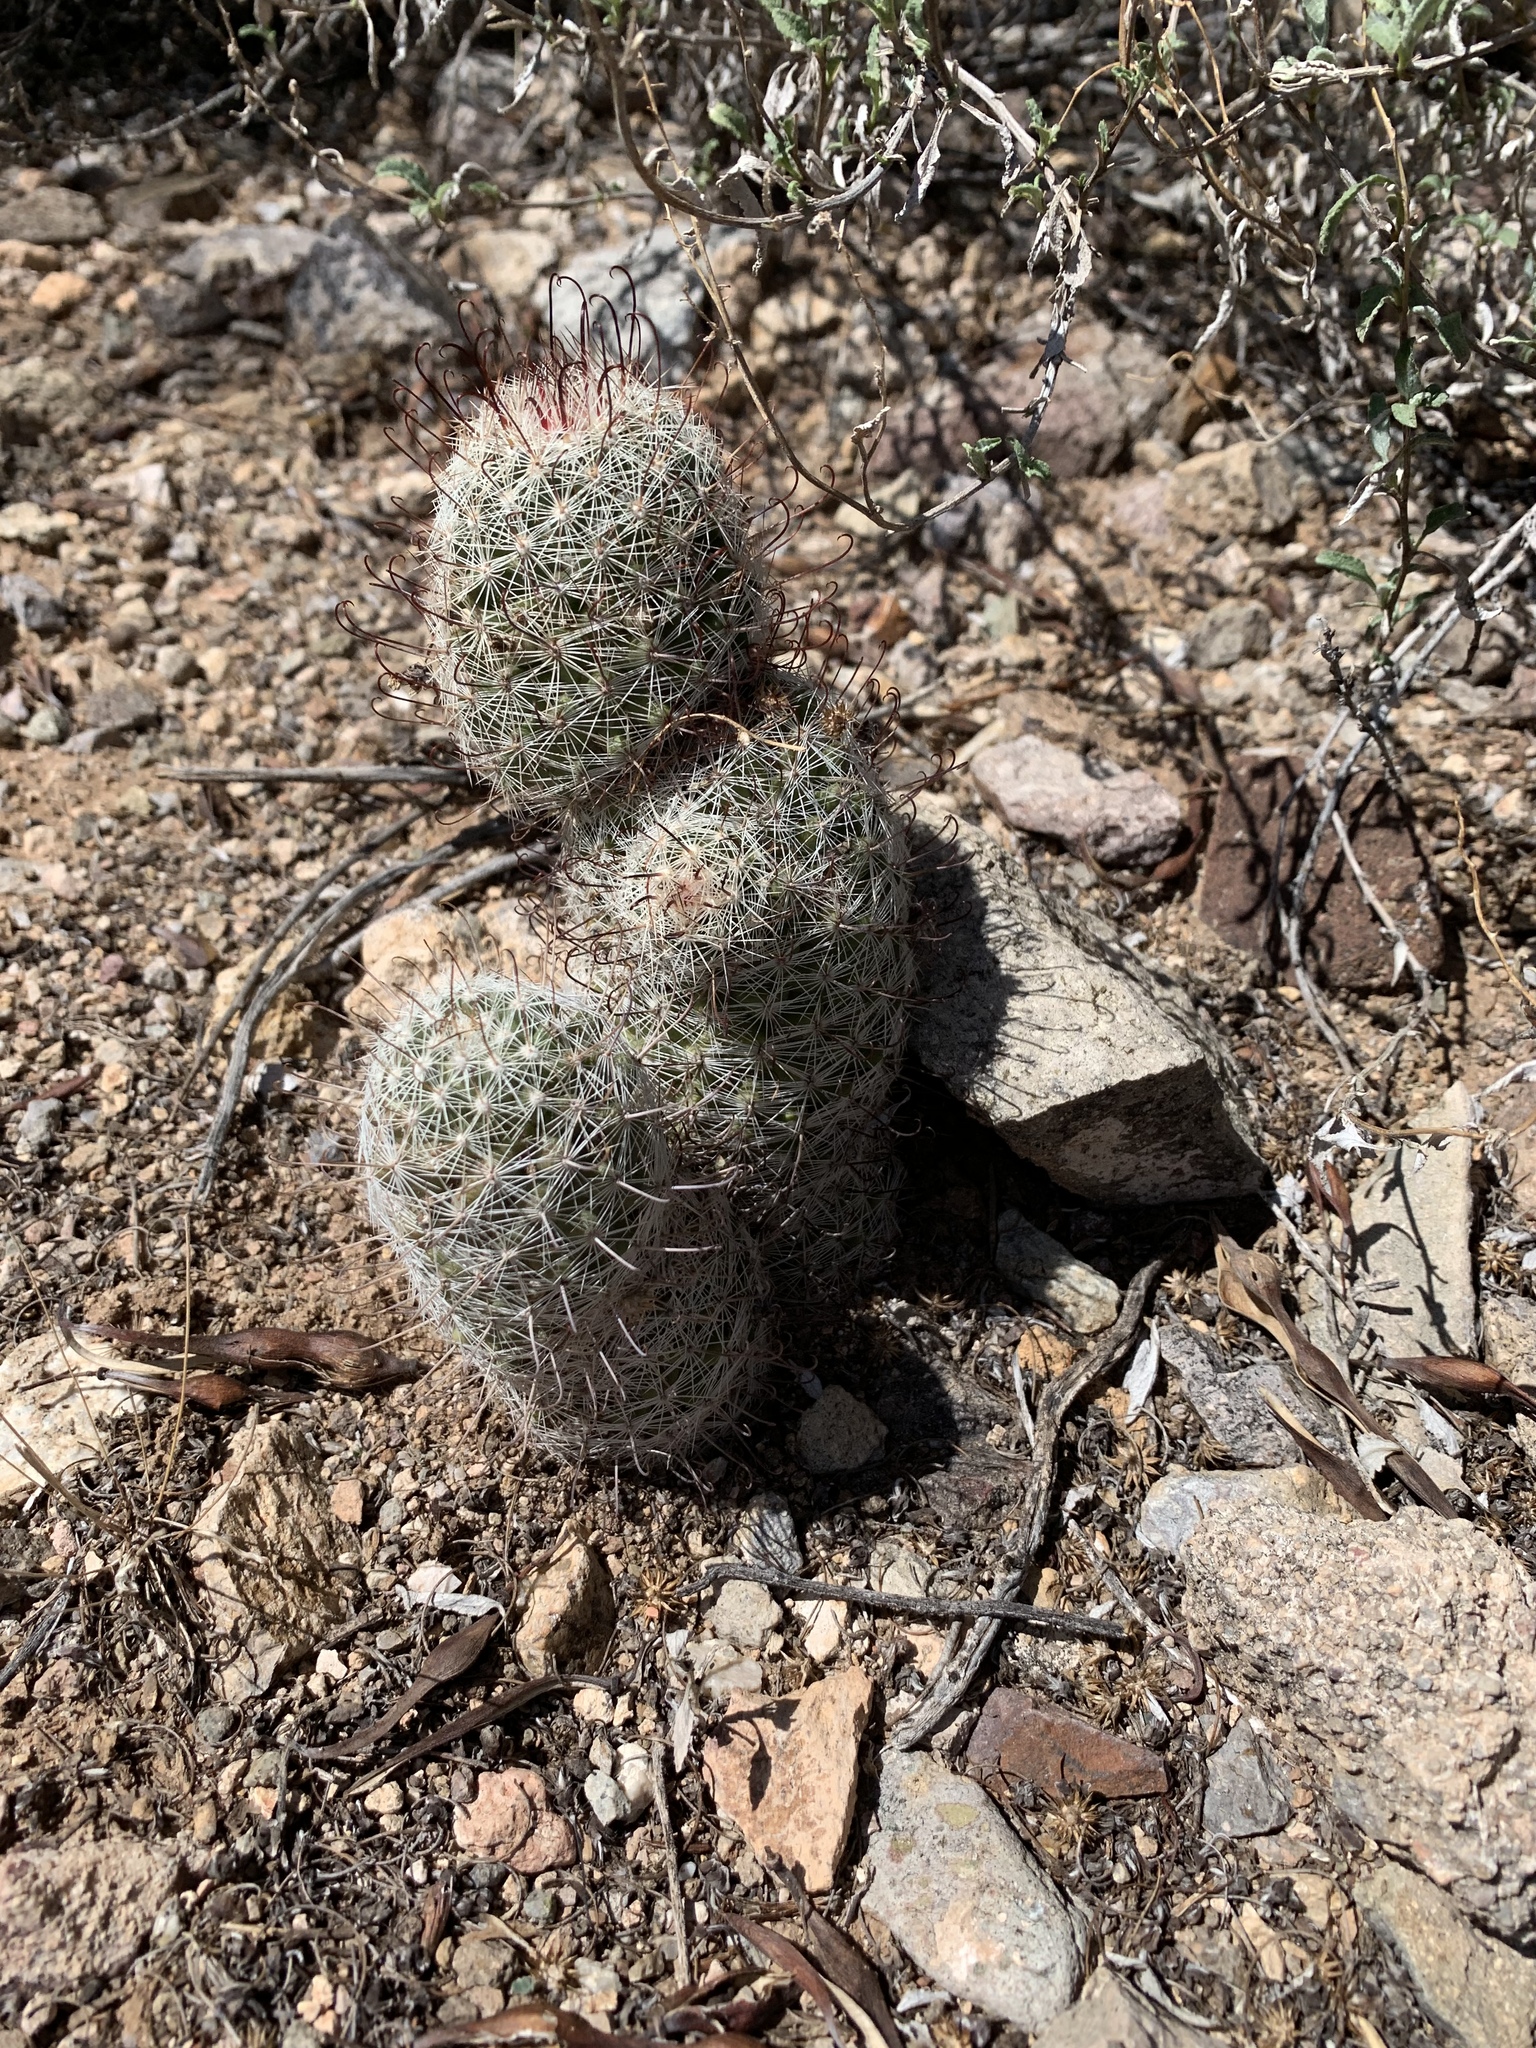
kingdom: Plantae
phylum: Tracheophyta
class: Magnoliopsida
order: Caryophyllales
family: Cactaceae
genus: Cochemiea
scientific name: Cochemiea grahamii
